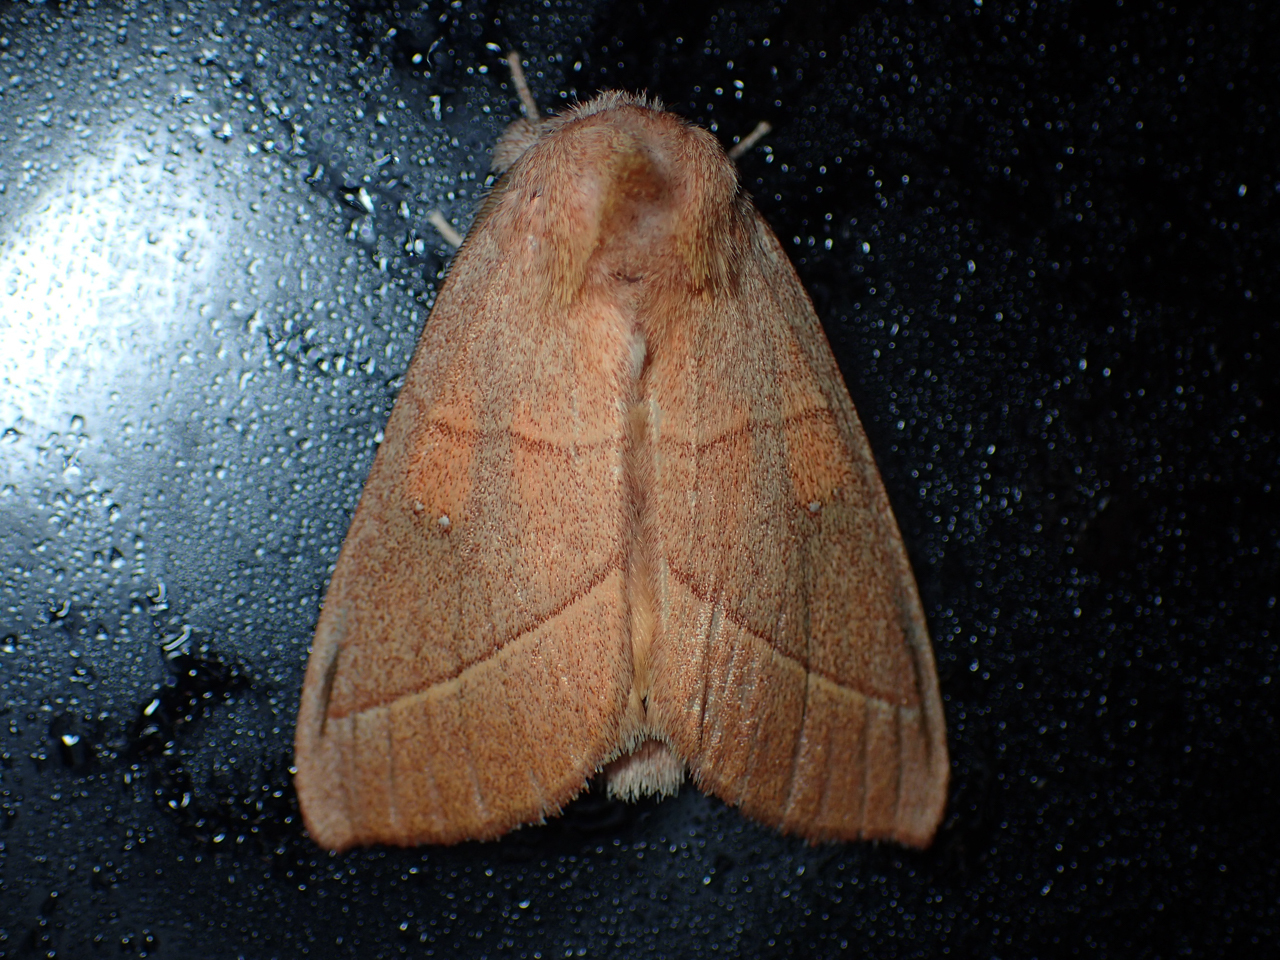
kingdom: Animalia
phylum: Arthropoda
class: Insecta
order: Lepidoptera
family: Notodontidae
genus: Nadata
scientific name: Nadata gibbosa
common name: White-dotted prominent
